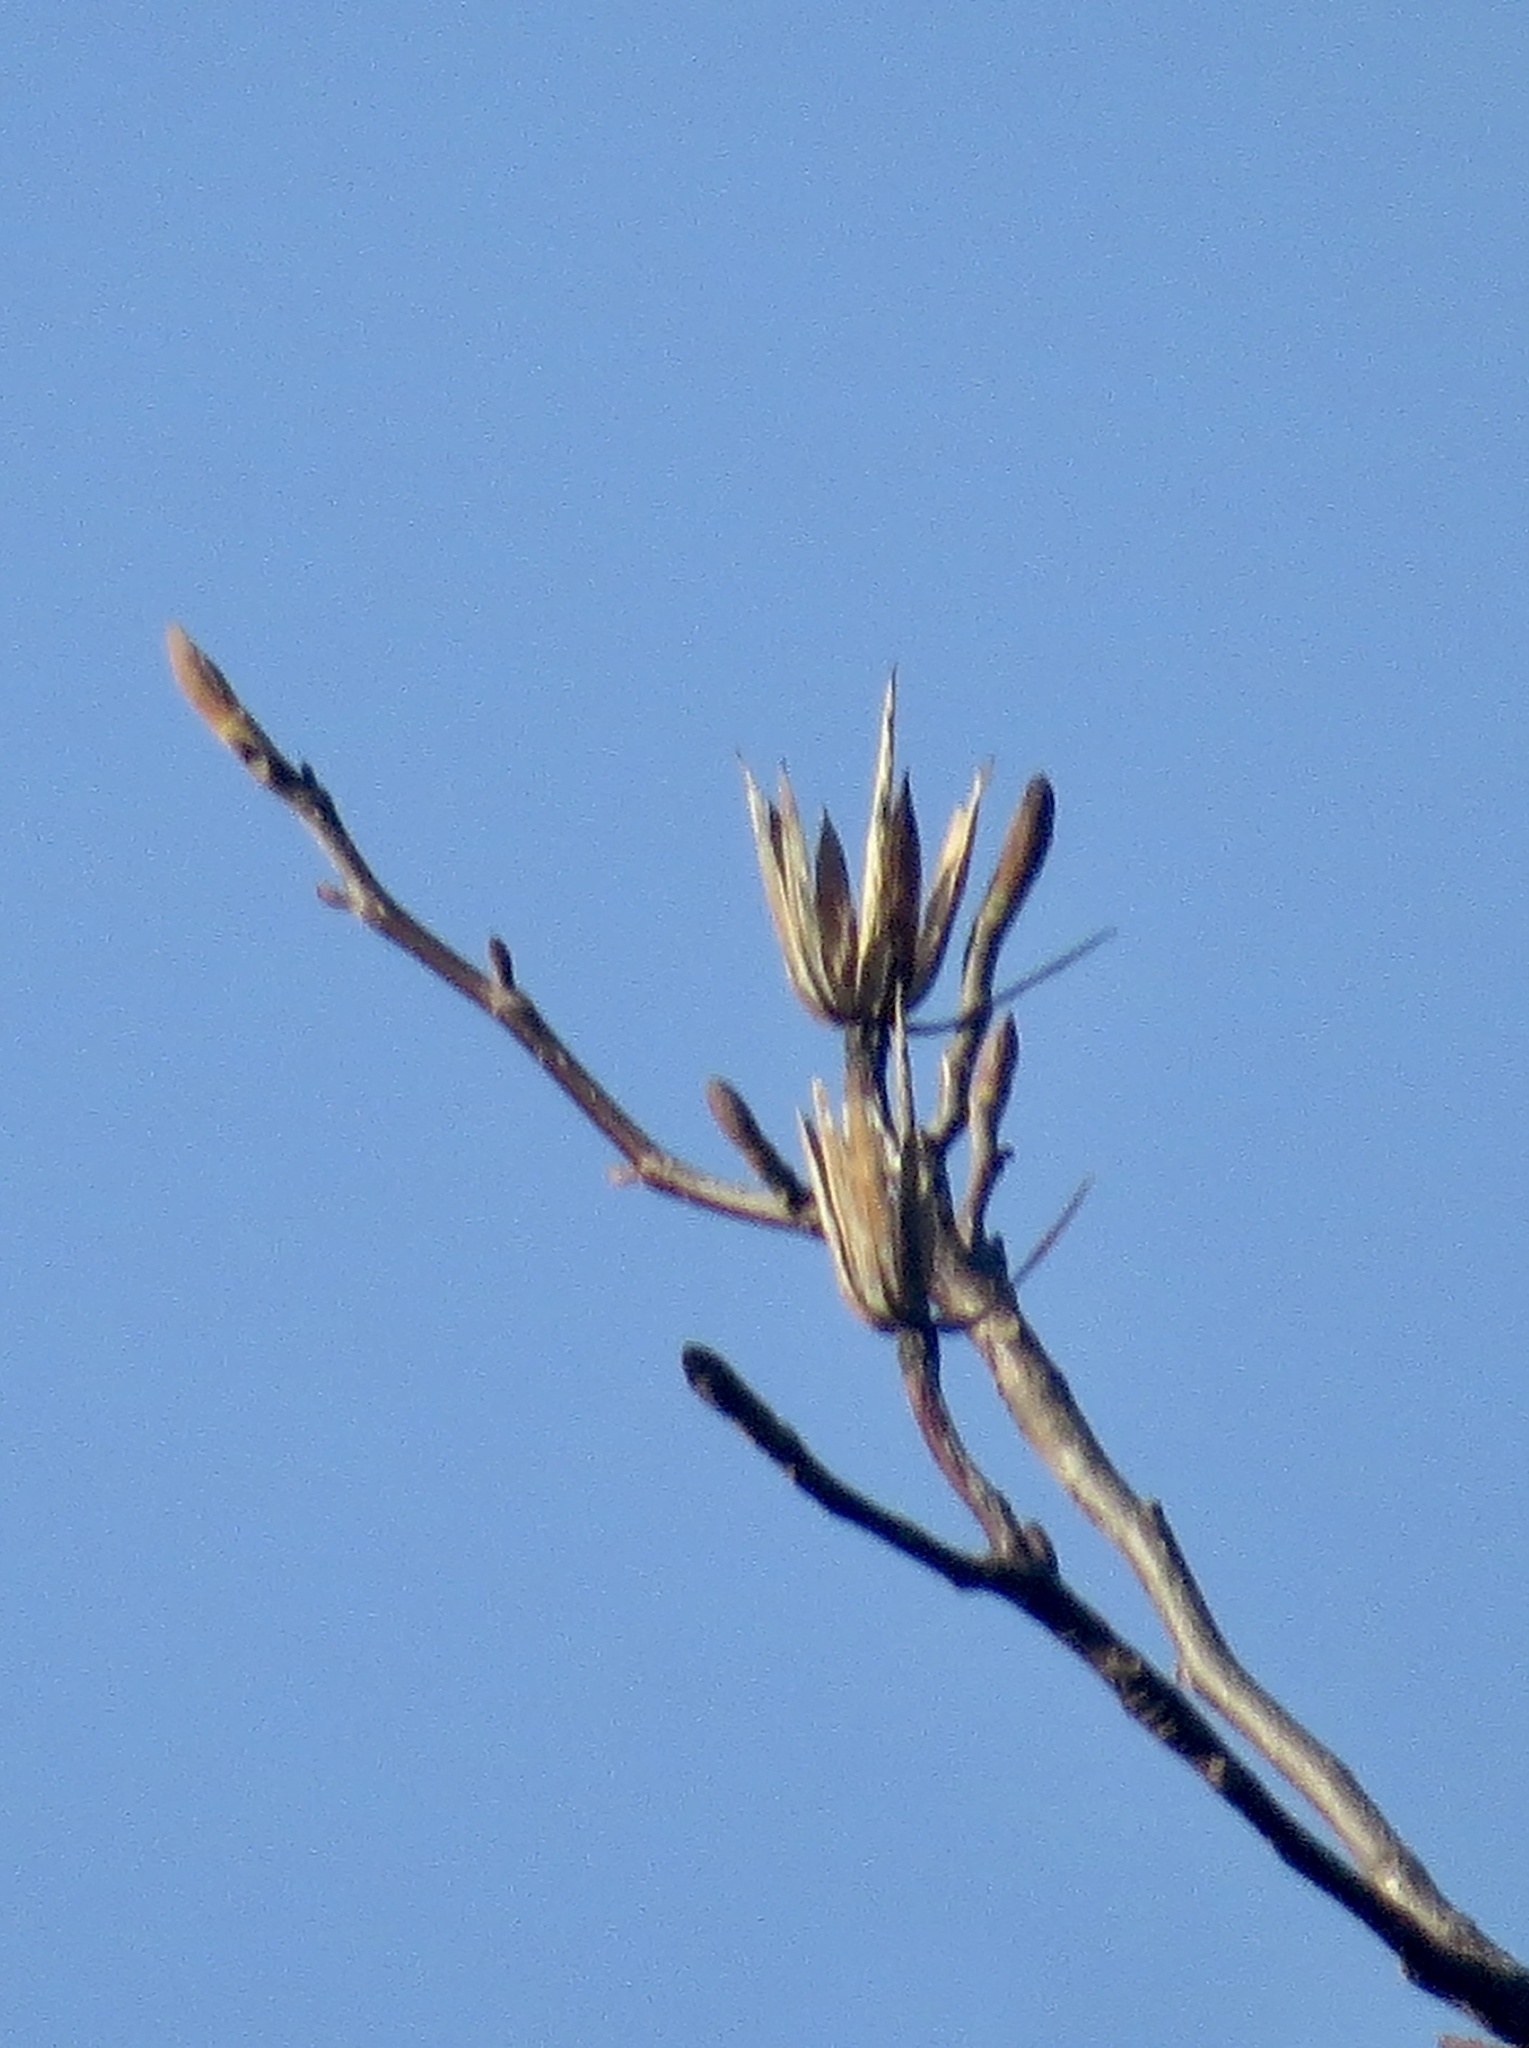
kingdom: Plantae
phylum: Tracheophyta
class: Magnoliopsida
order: Magnoliales
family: Magnoliaceae
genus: Liriodendron
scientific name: Liriodendron tulipifera
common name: Tulip tree
